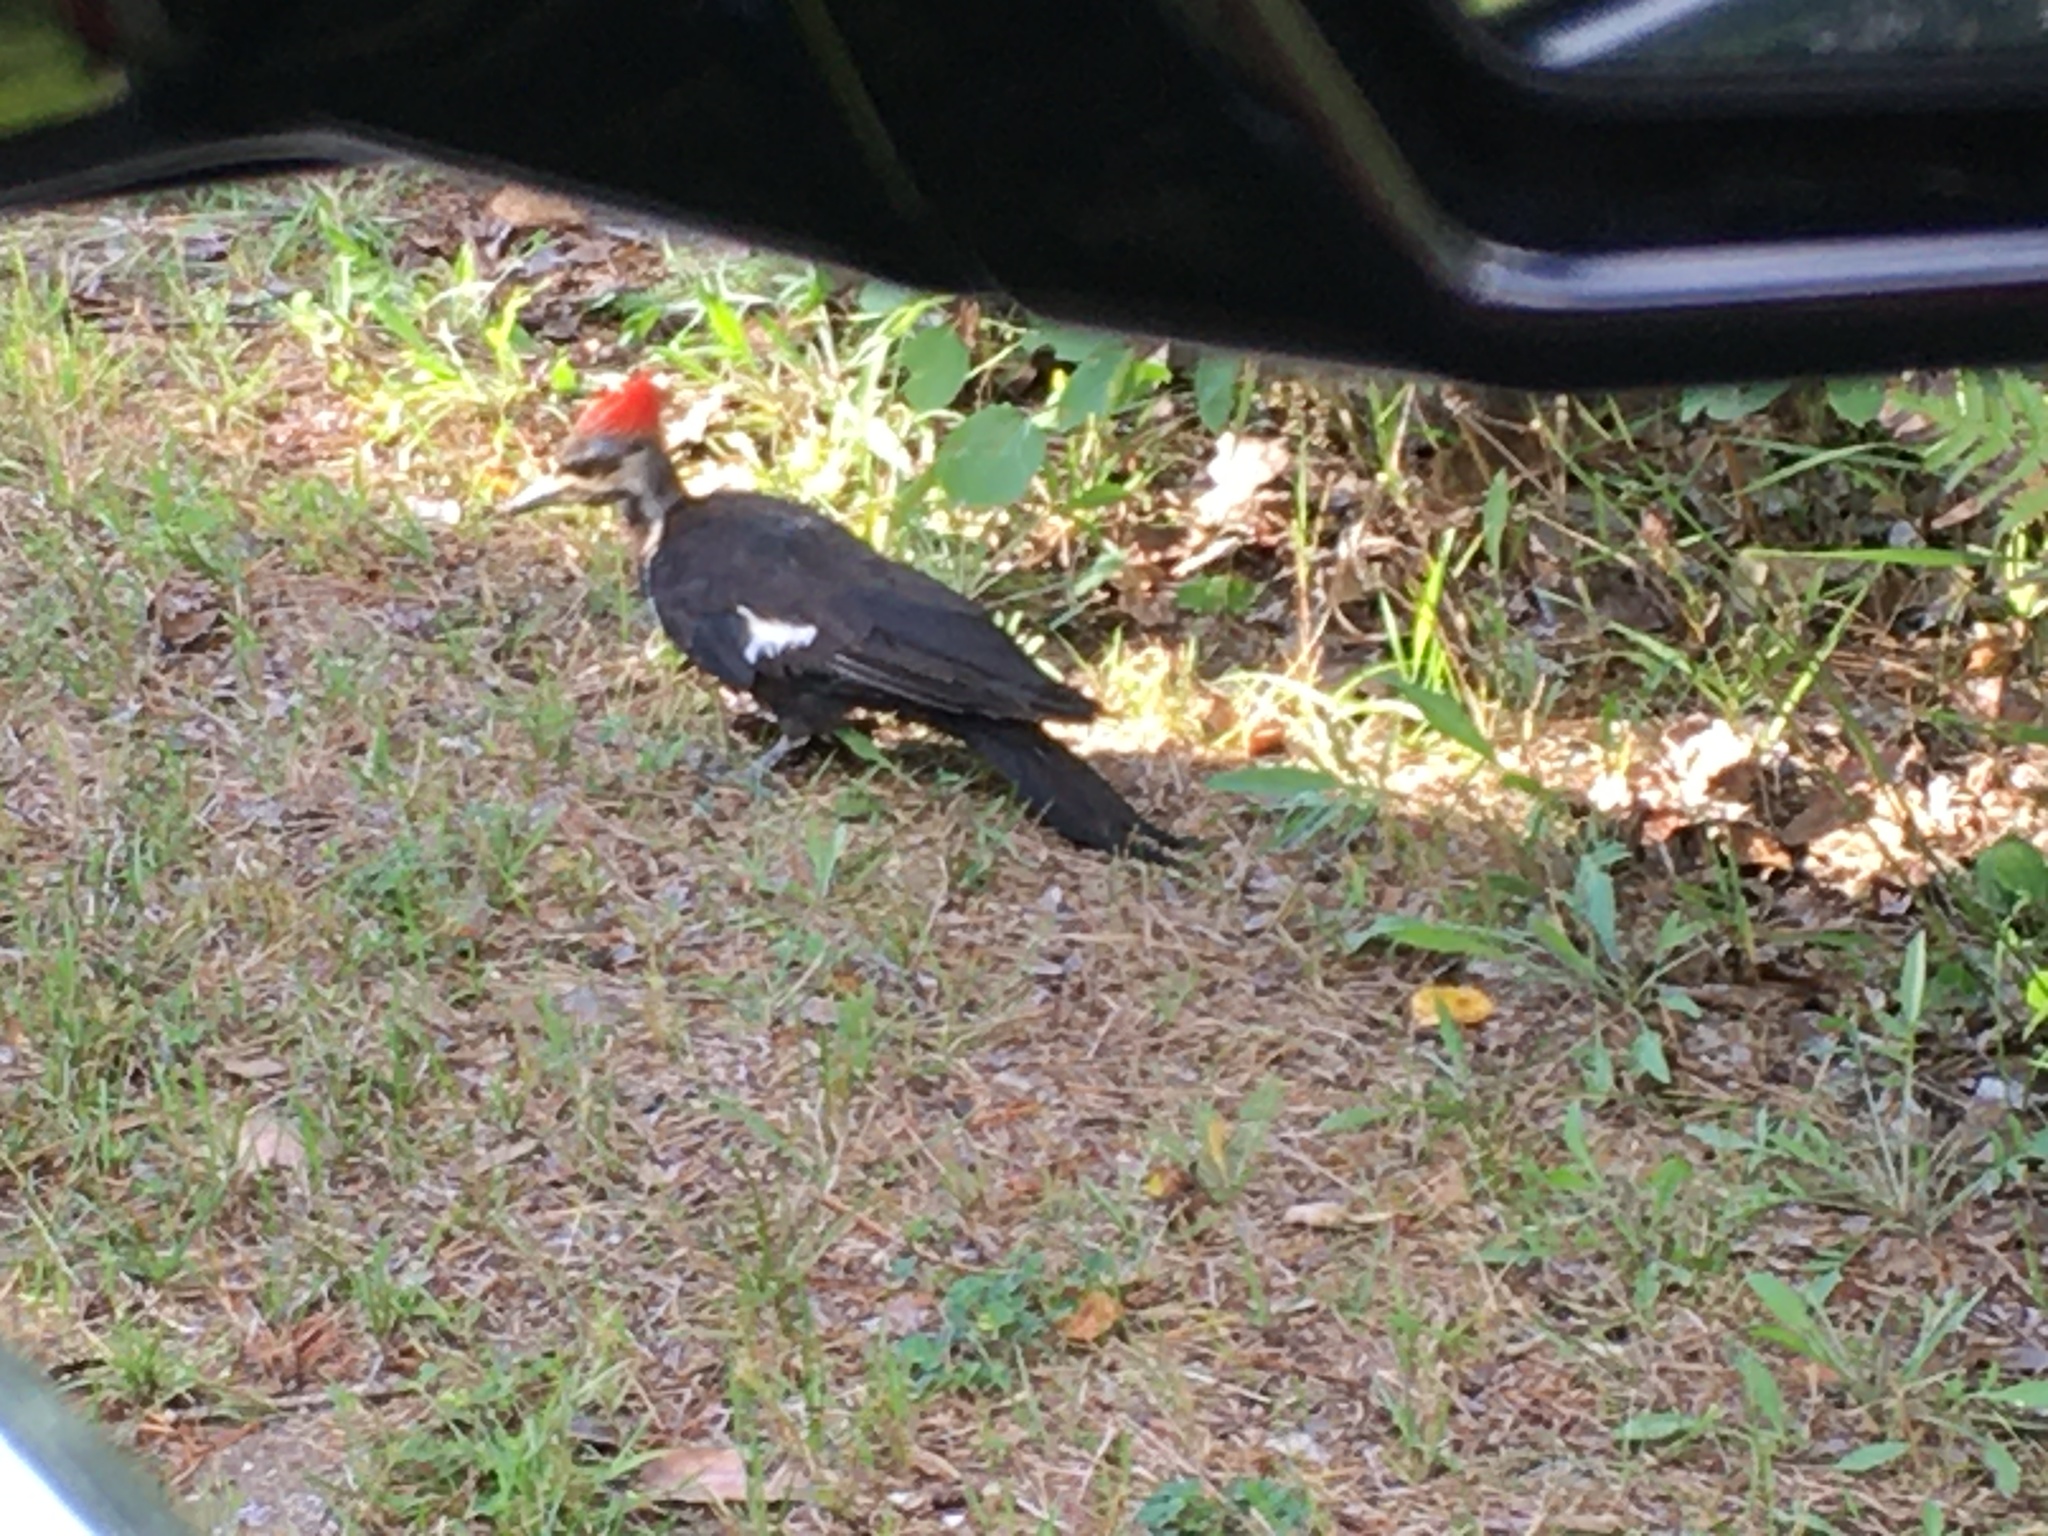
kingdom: Animalia
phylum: Chordata
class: Aves
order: Piciformes
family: Picidae
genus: Dryocopus
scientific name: Dryocopus pileatus
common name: Pileated woodpecker
